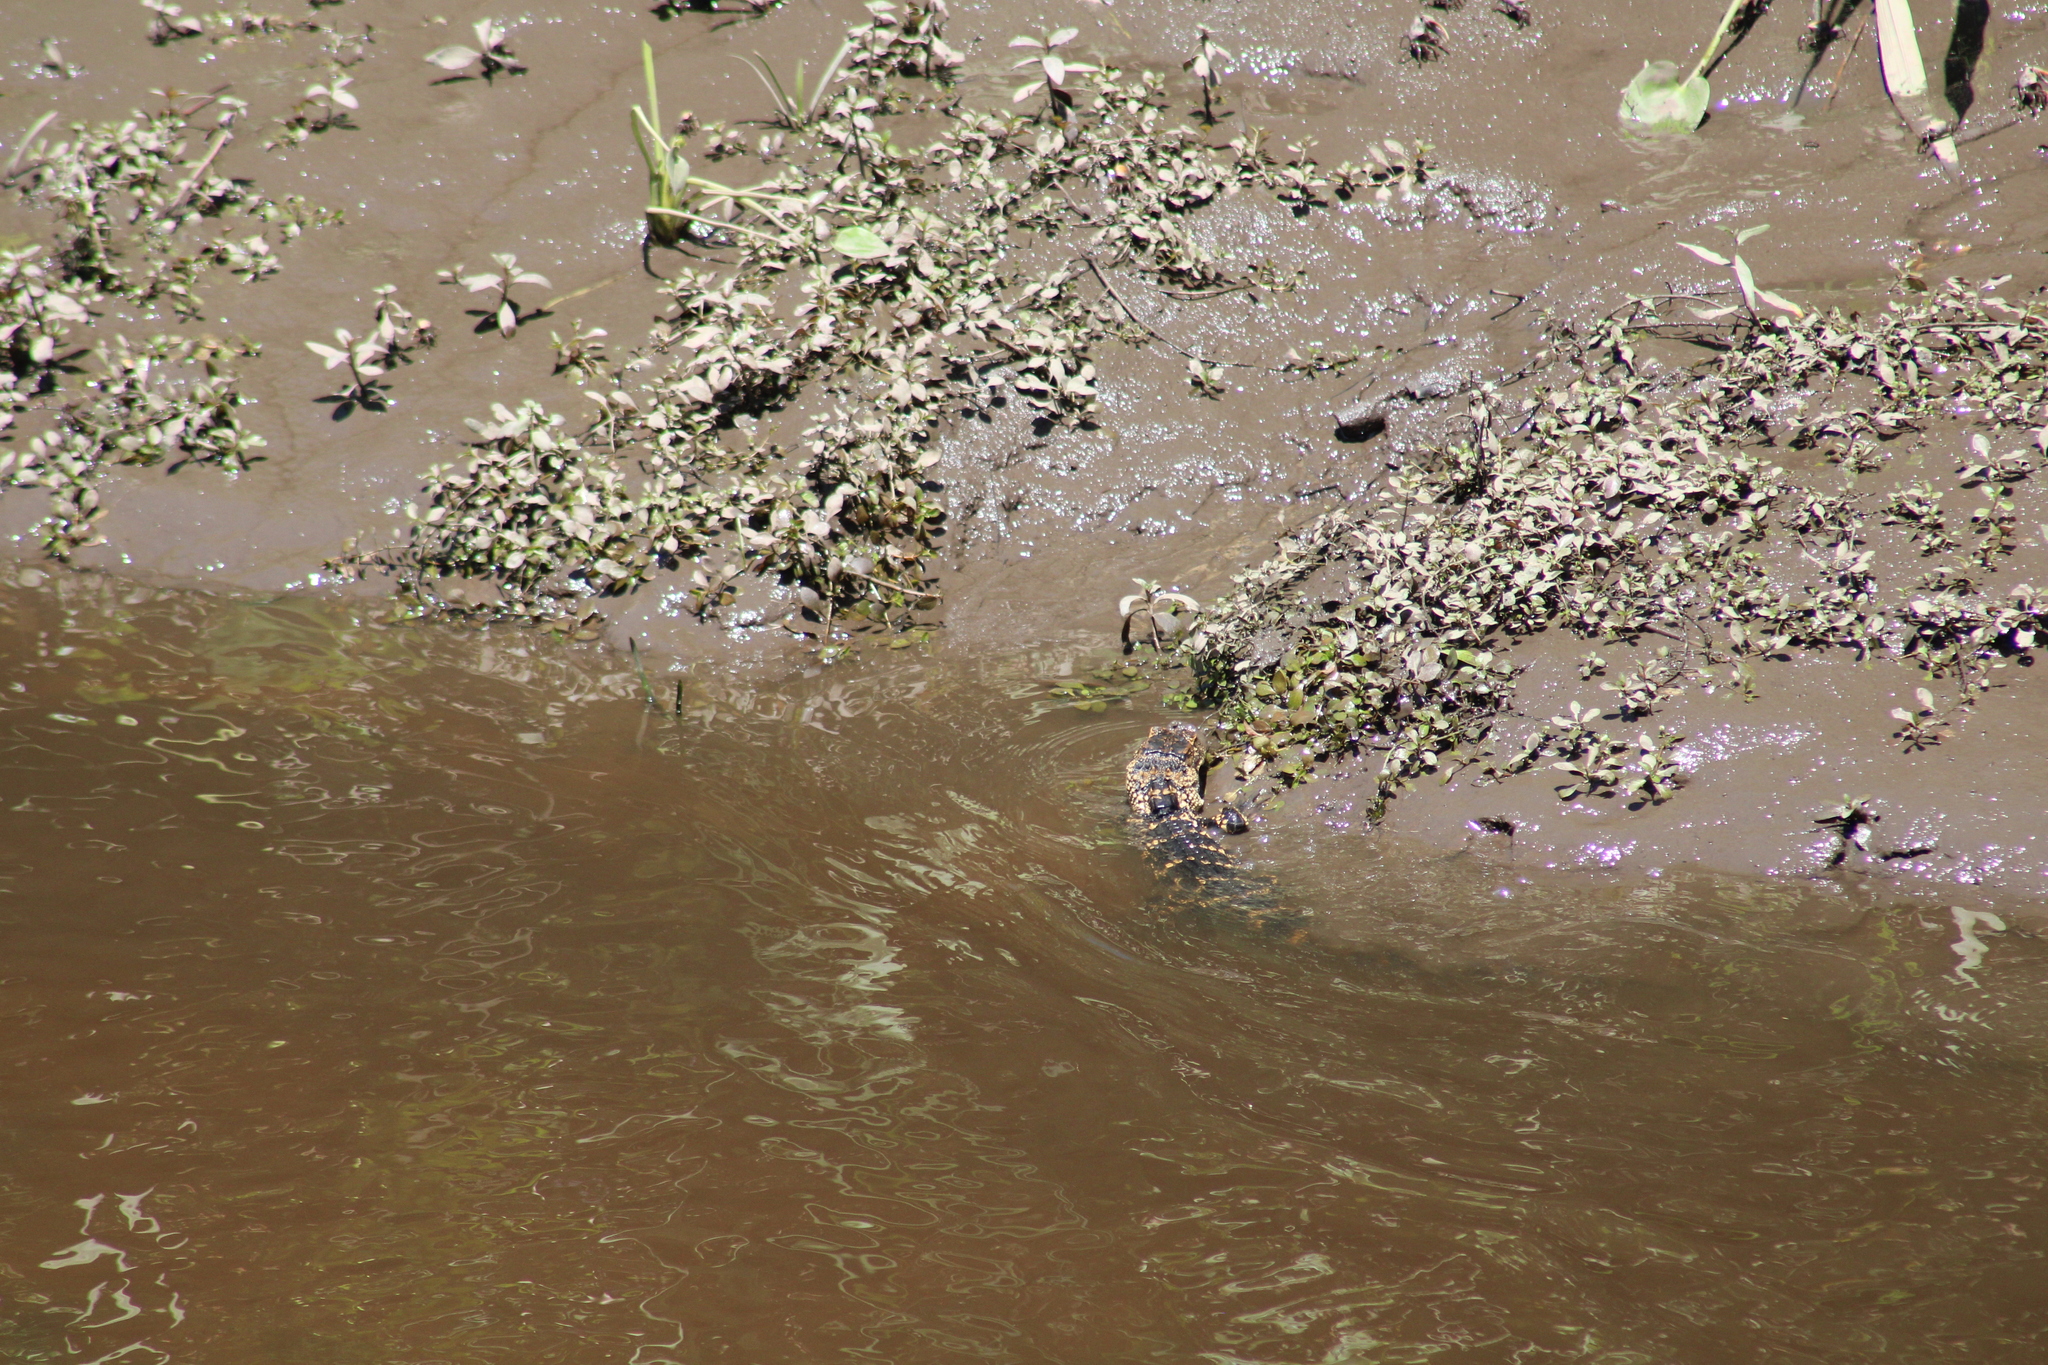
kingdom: Animalia
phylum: Chordata
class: Crocodylia
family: Alligatoridae
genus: Alligator
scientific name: Alligator mississippiensis
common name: American alligator
